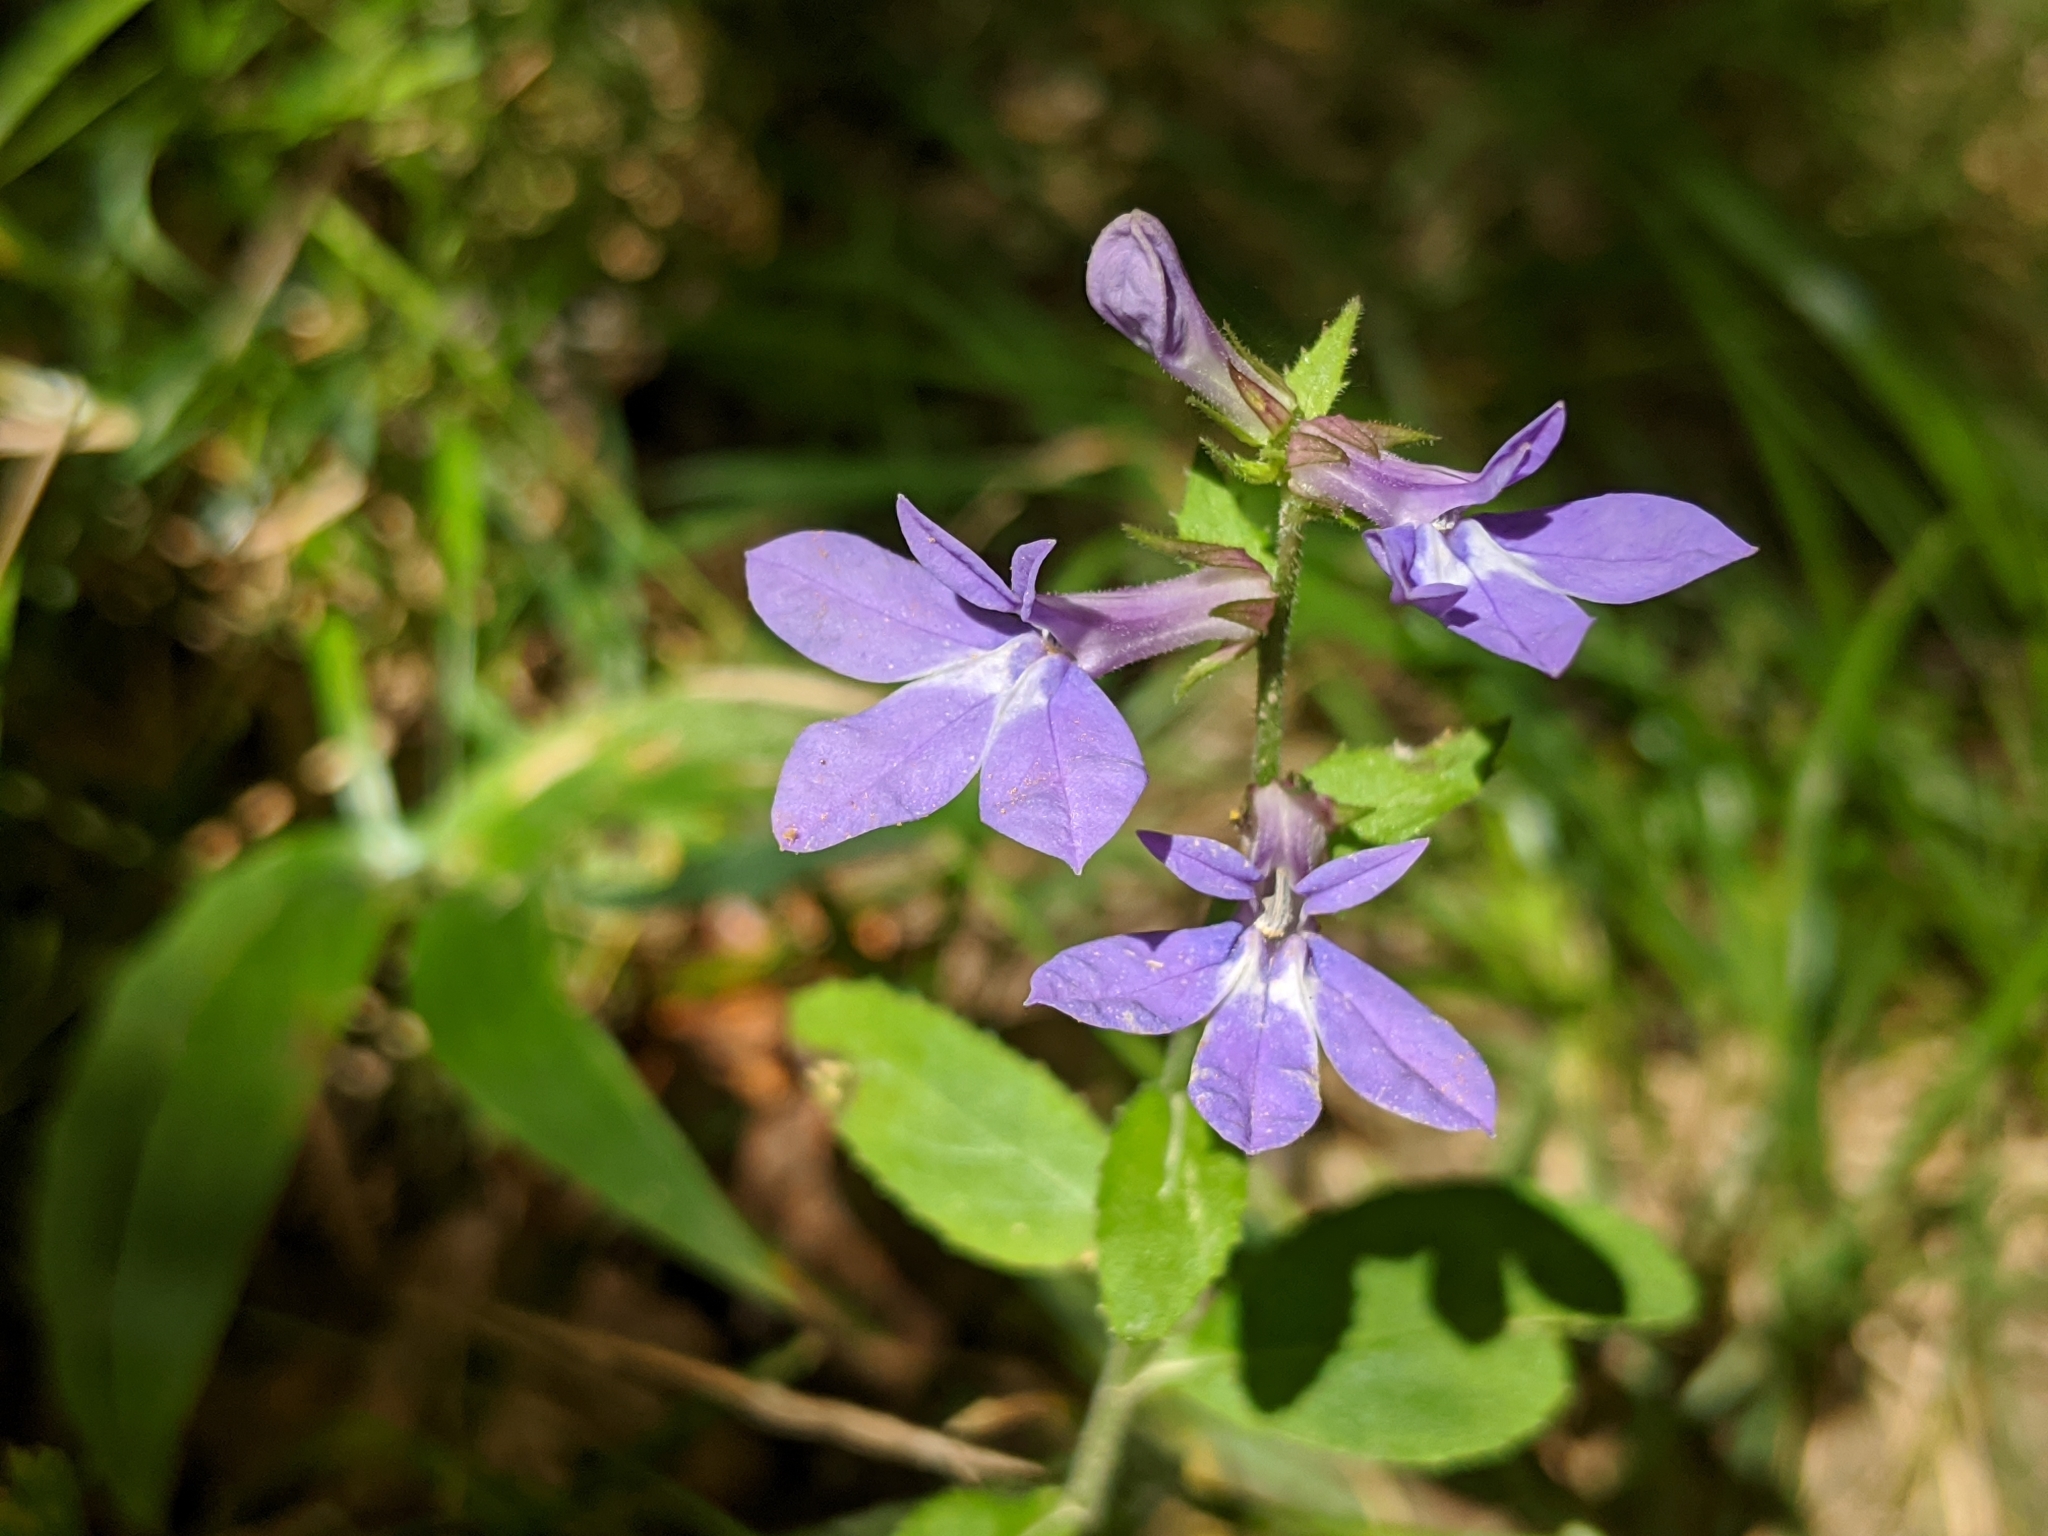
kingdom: Plantae
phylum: Tracheophyta
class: Magnoliopsida
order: Asterales
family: Campanulaceae
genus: Lobelia
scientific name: Lobelia puberula
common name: Purple dewdrop
